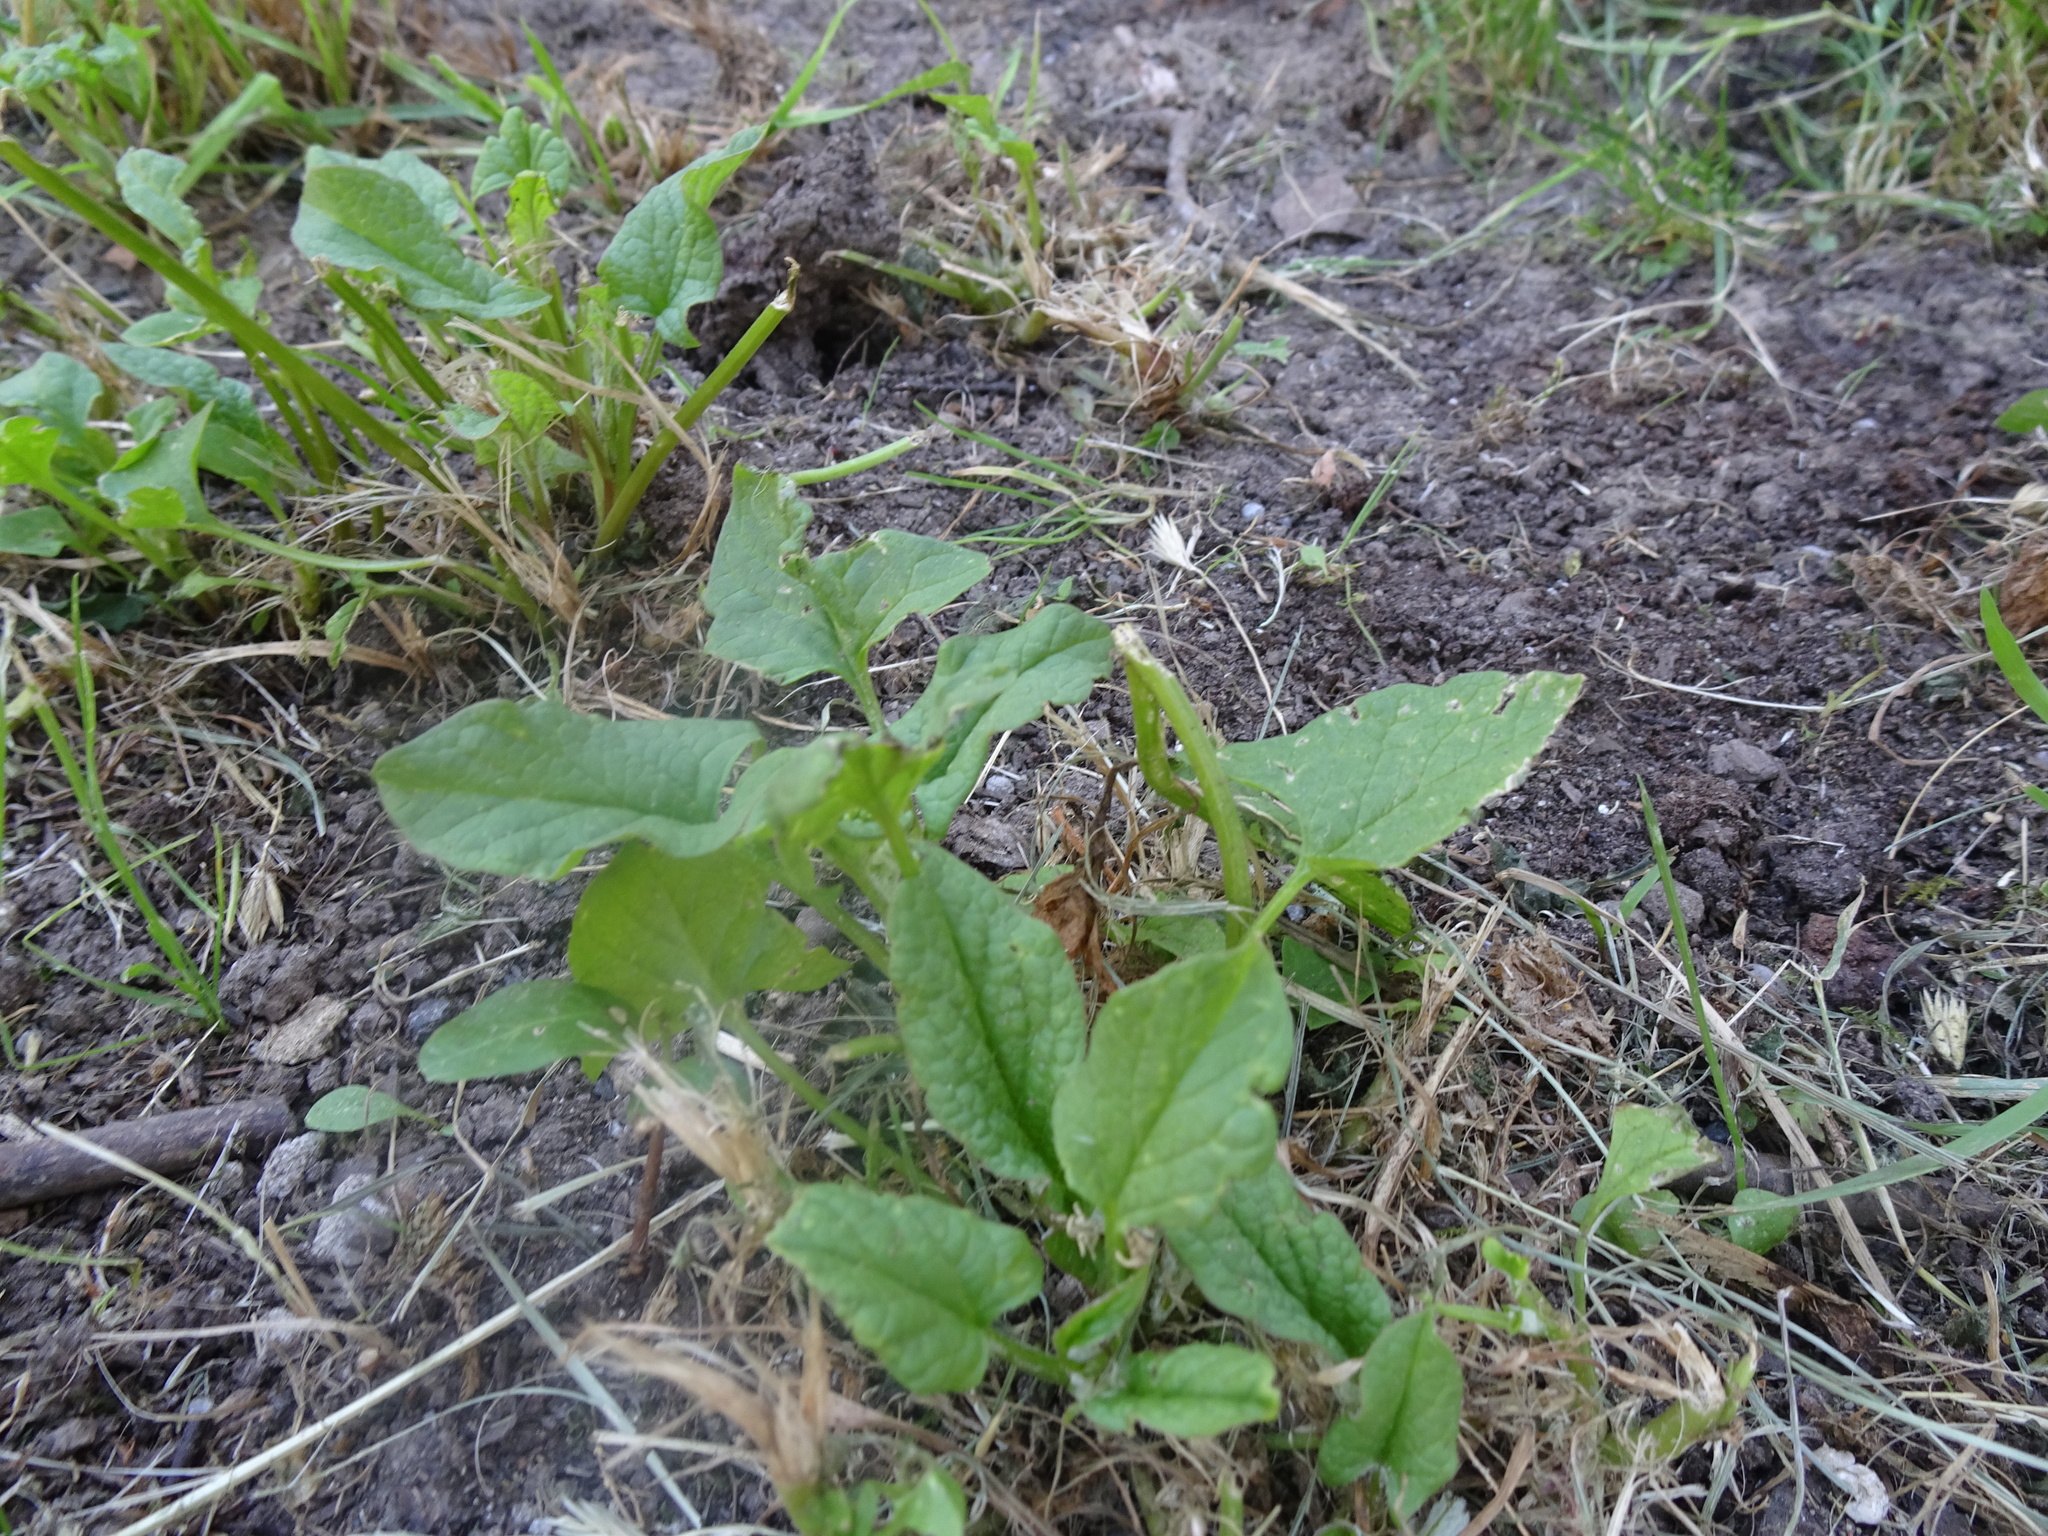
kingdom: Plantae
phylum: Tracheophyta
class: Magnoliopsida
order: Caryophyllales
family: Amaranthaceae
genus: Blitum
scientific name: Blitum bonus-henricus
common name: Good king henry
